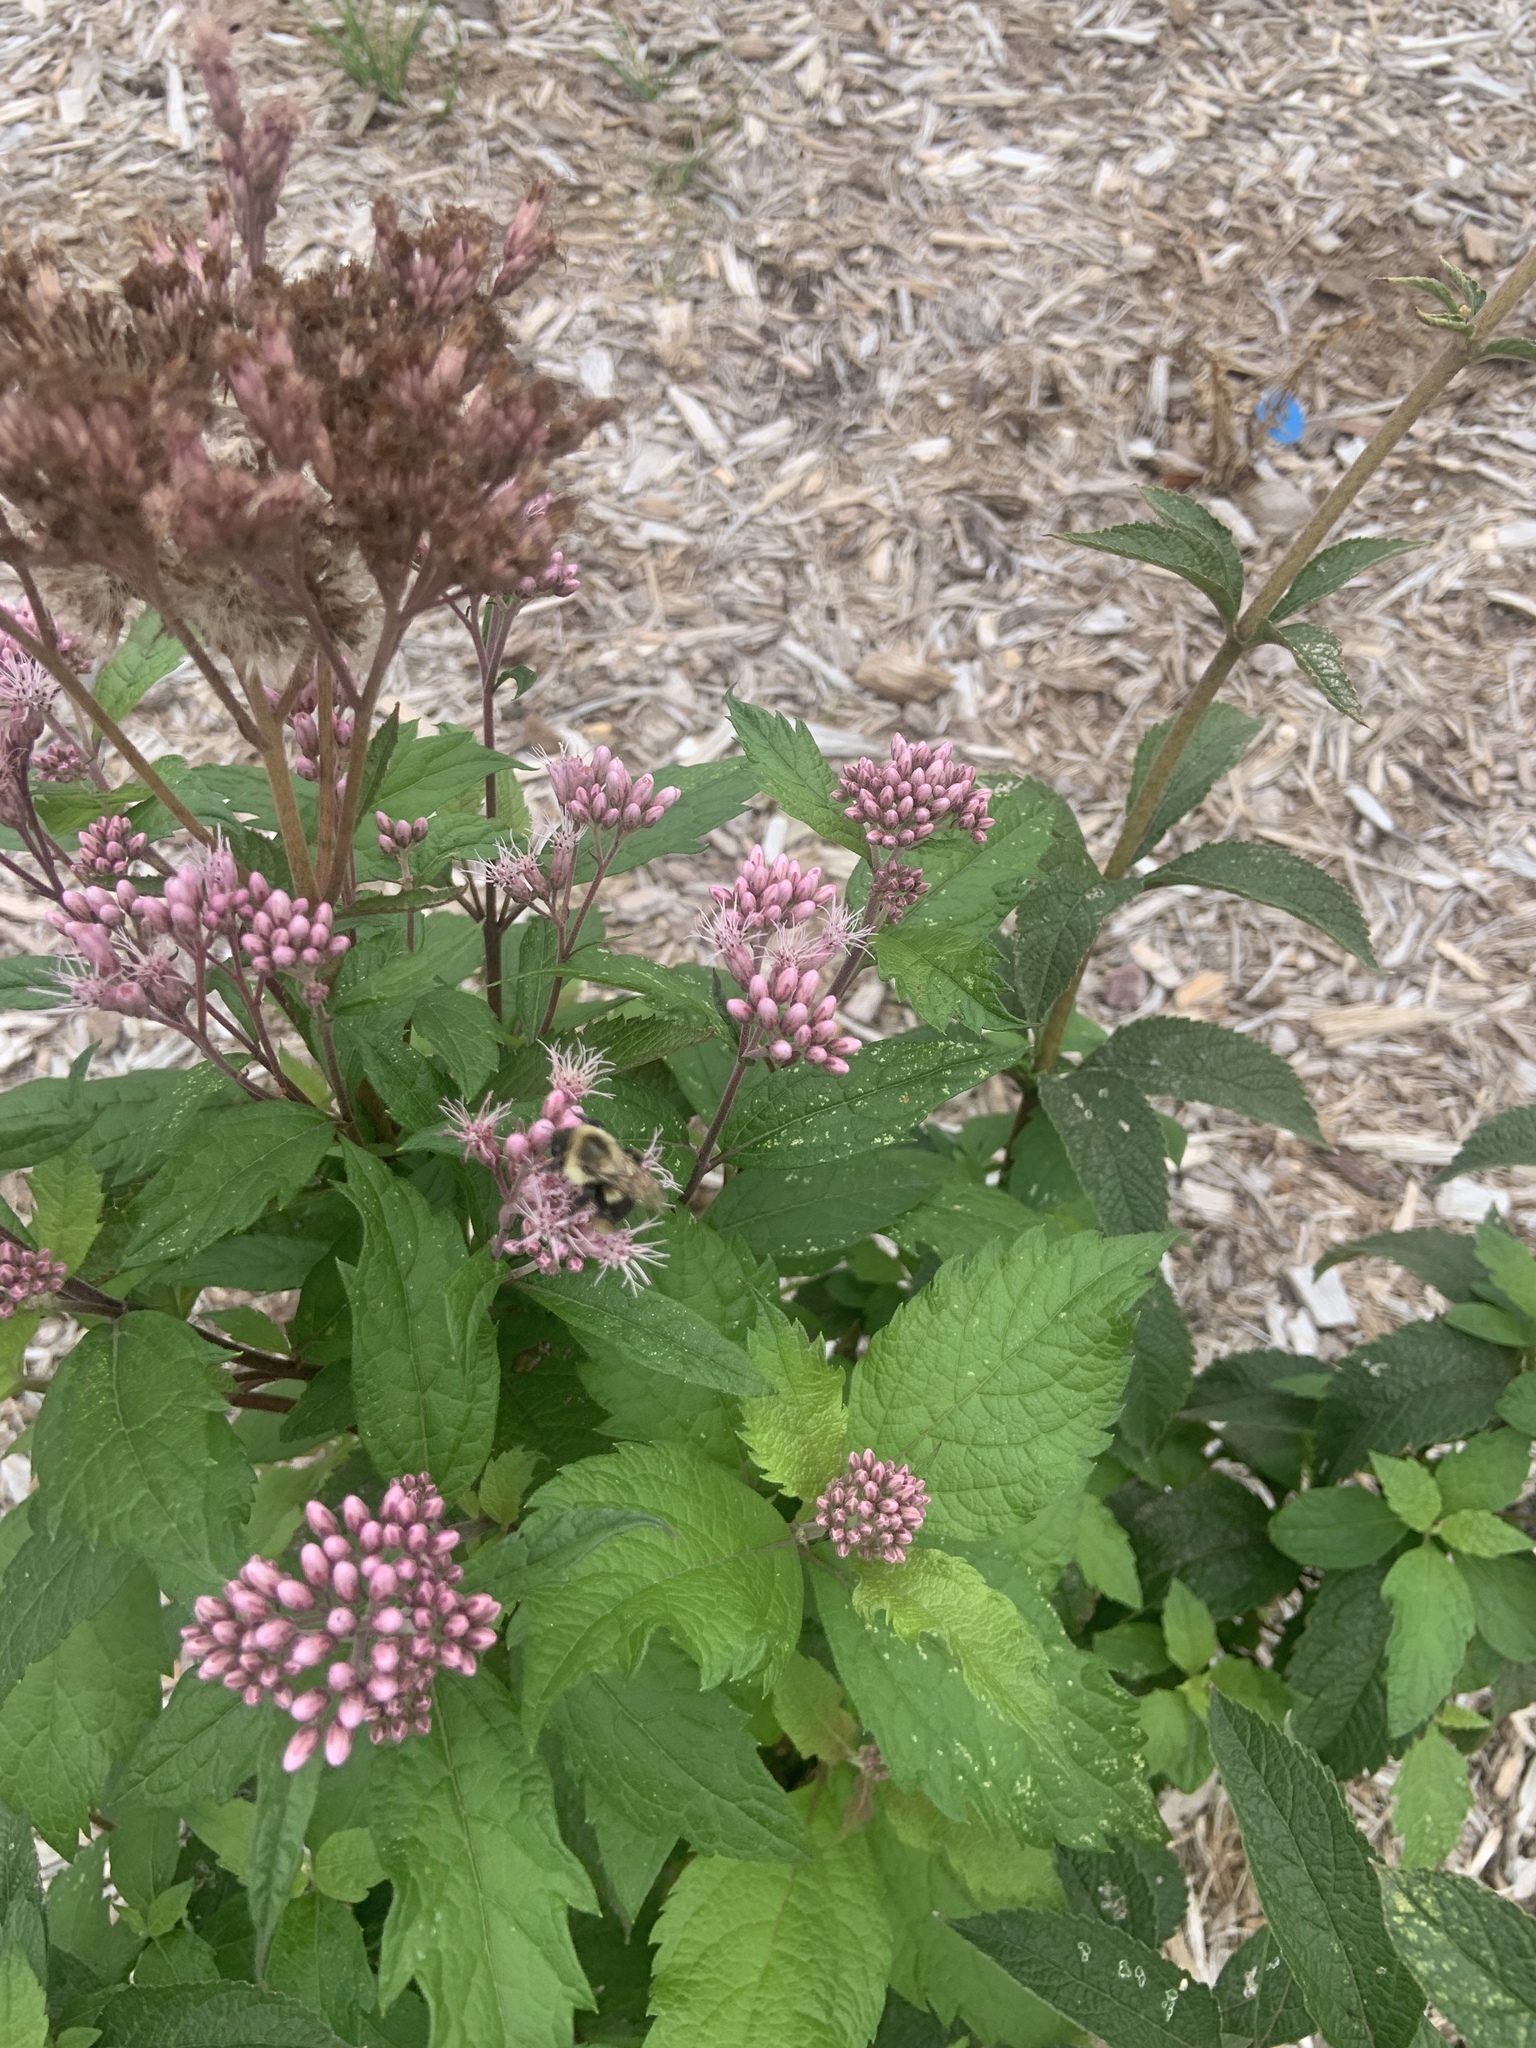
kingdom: Animalia
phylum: Arthropoda
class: Insecta
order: Hymenoptera
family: Apidae
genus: Bombus
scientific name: Bombus impatiens
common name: Common eastern bumble bee
